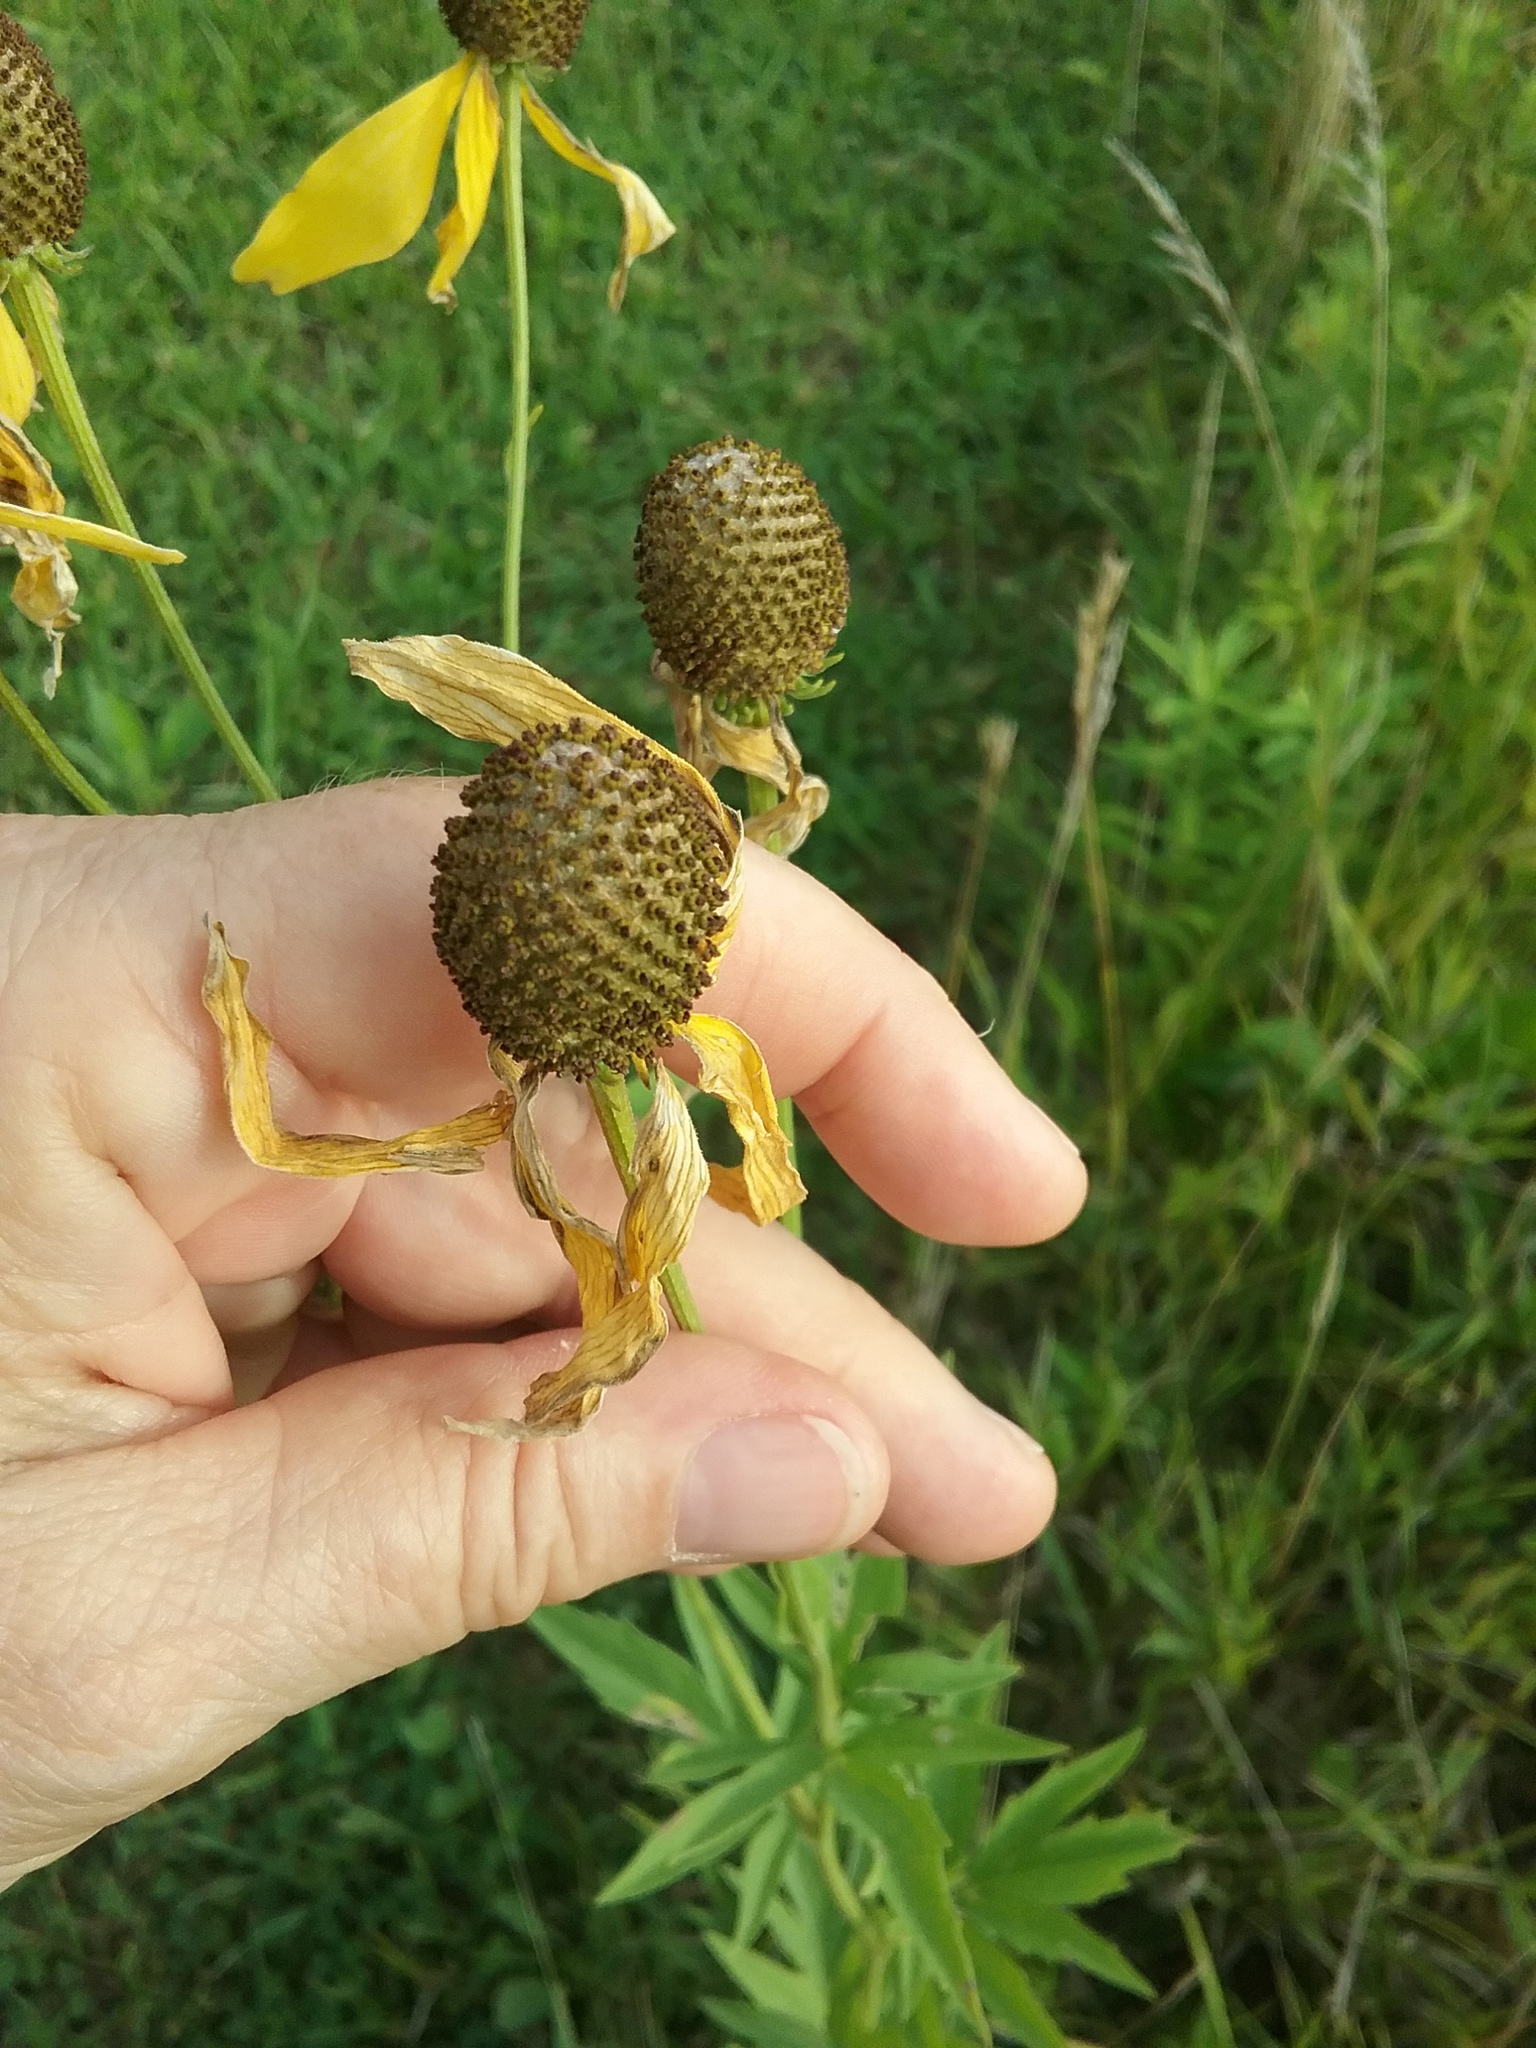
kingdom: Plantae
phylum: Tracheophyta
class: Magnoliopsida
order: Asterales
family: Asteraceae
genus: Ratibida
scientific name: Ratibida pinnata
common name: Drooping prairie-coneflower
